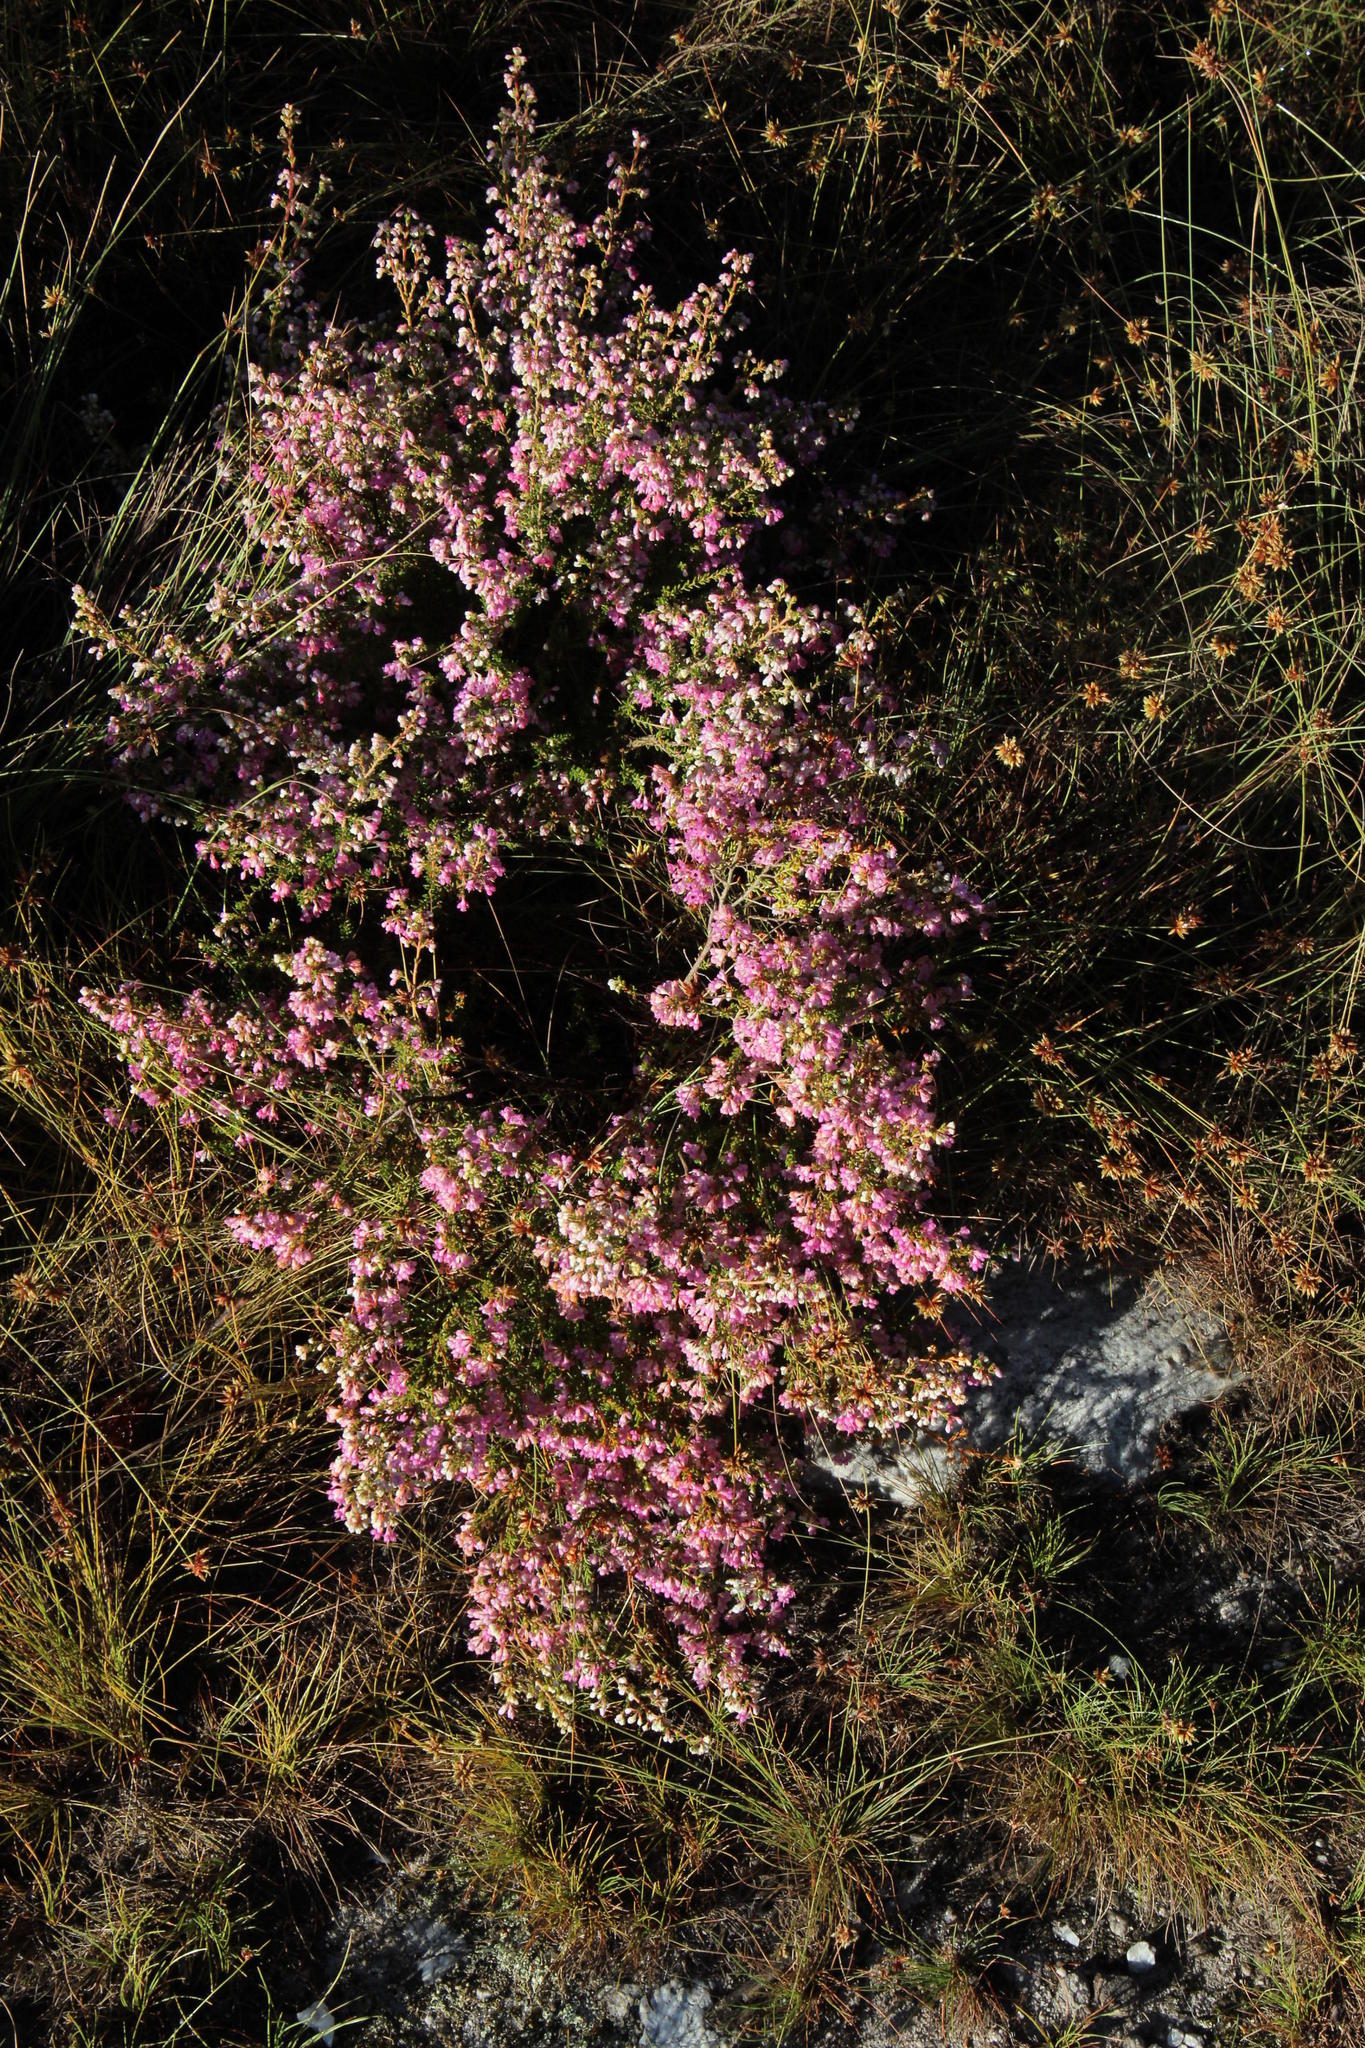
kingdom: Plantae
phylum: Tracheophyta
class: Magnoliopsida
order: Ericales
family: Ericaceae
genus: Erica
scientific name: Erica melanthera
